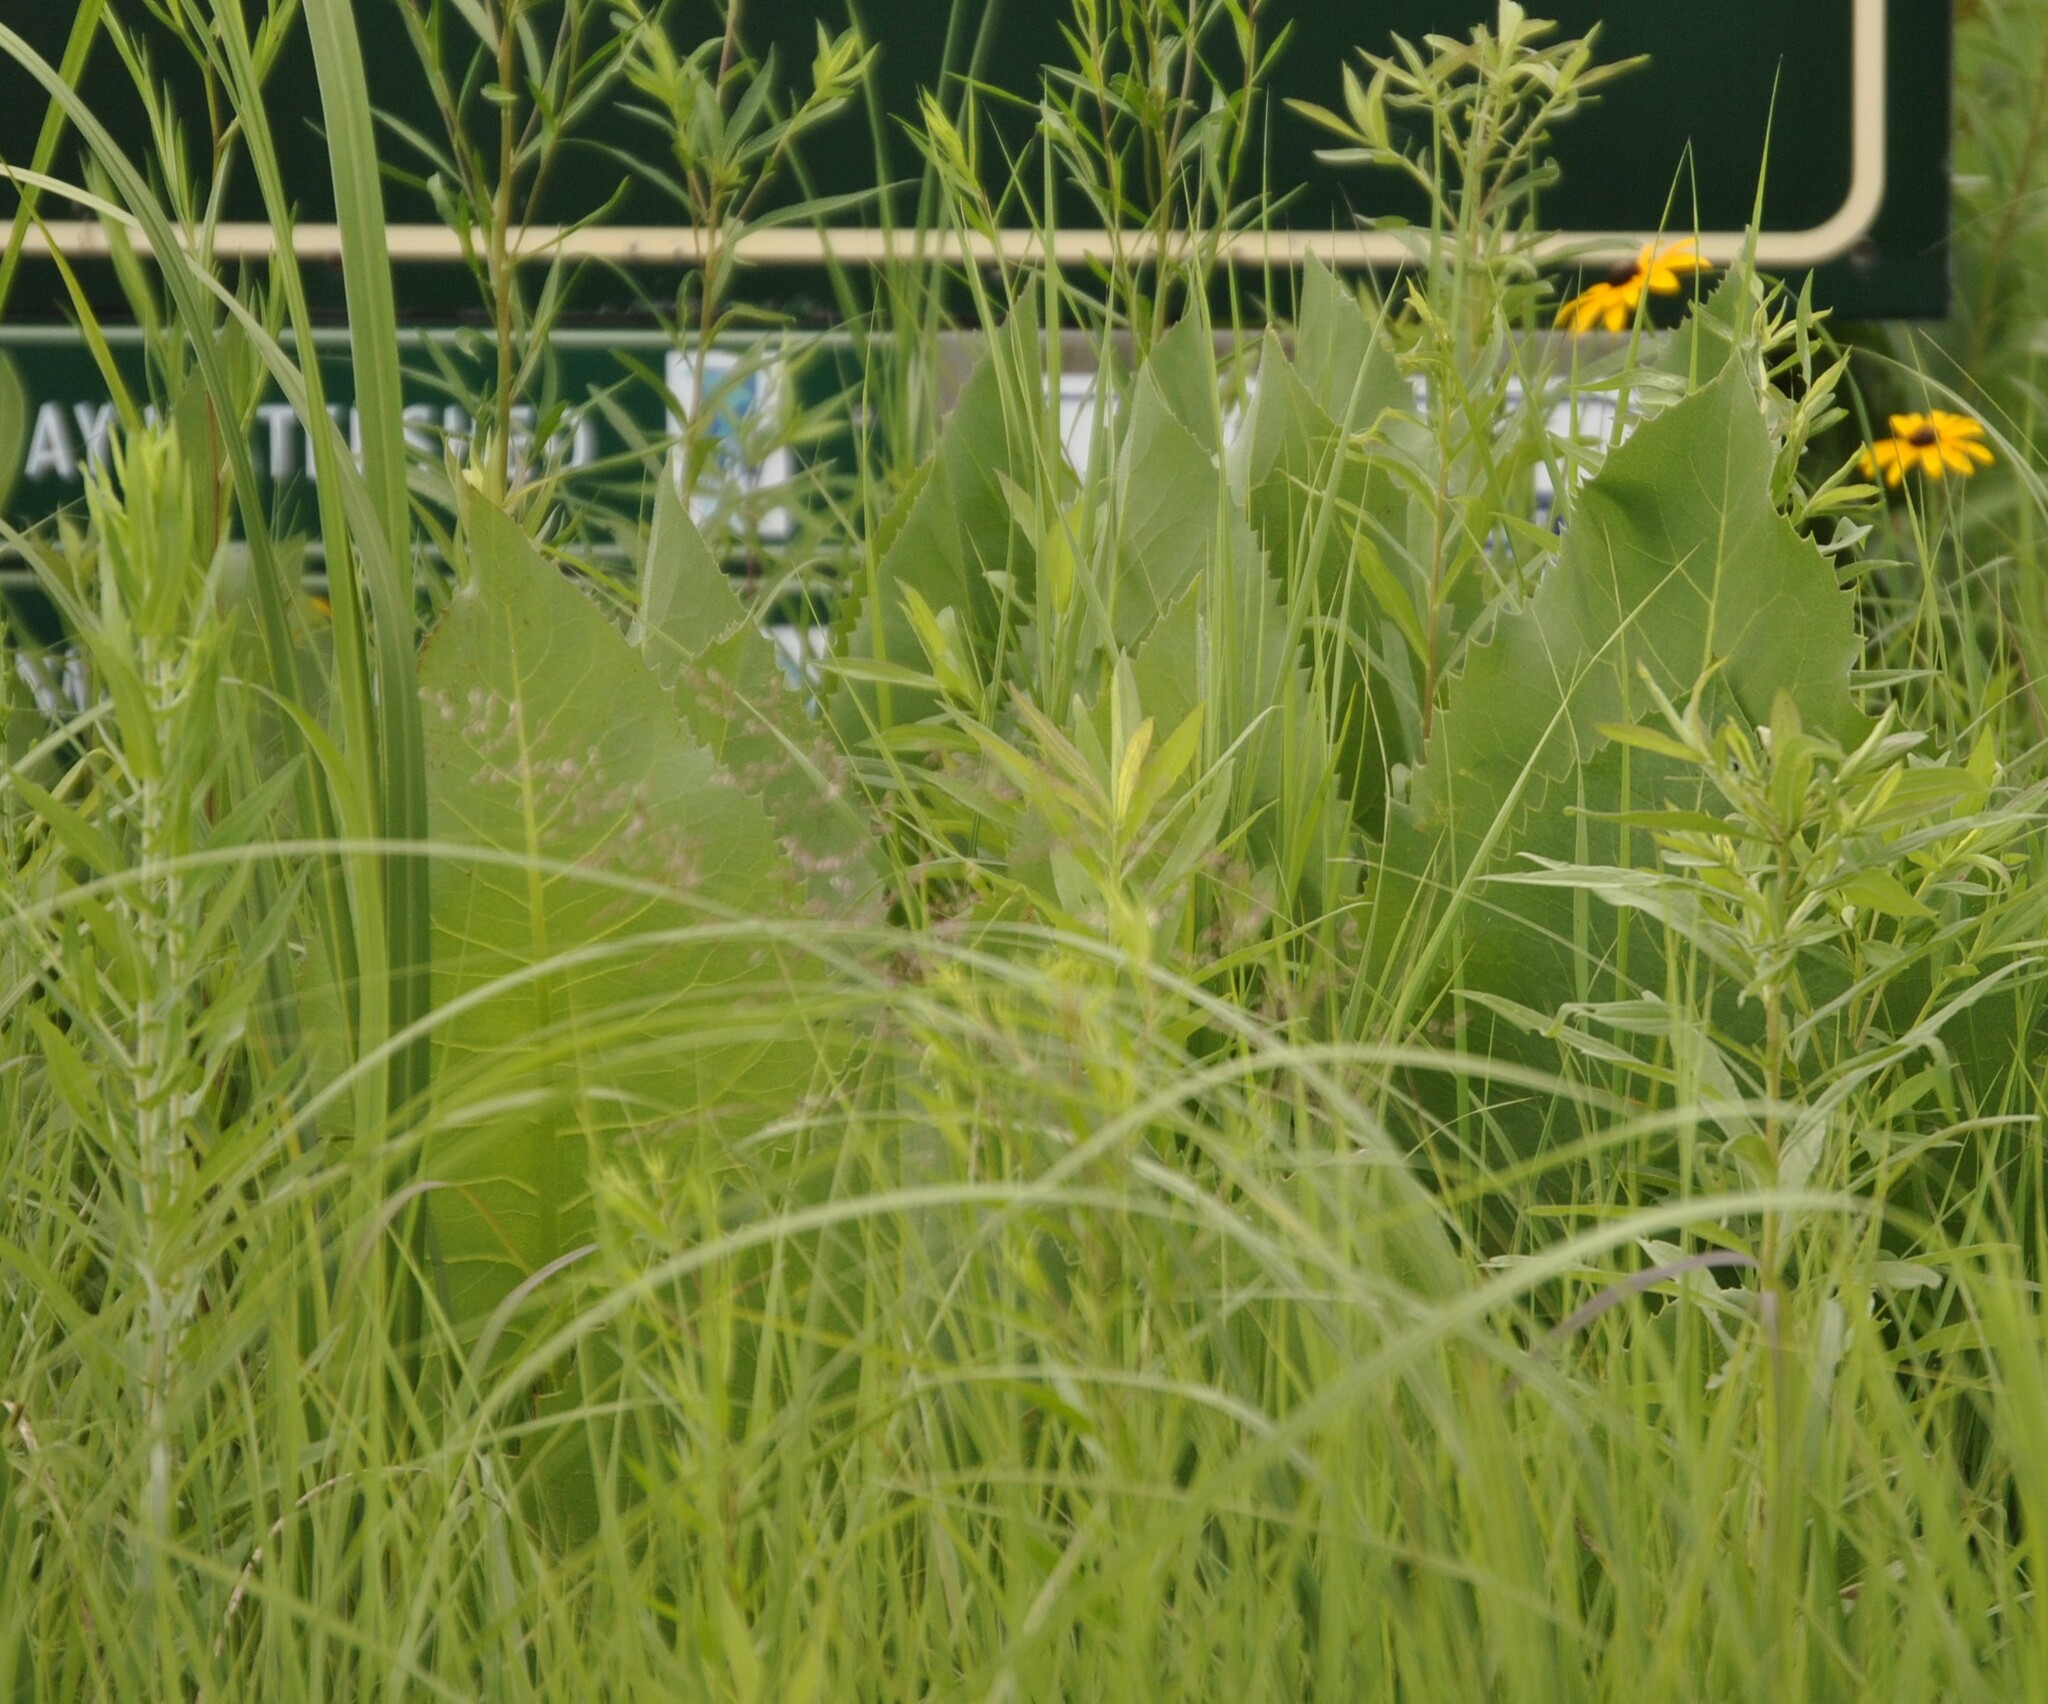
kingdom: Plantae
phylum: Tracheophyta
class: Magnoliopsida
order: Asterales
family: Asteraceae
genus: Silphium
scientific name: Silphium terebinthinaceum
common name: Basal-leaf rosinweed
